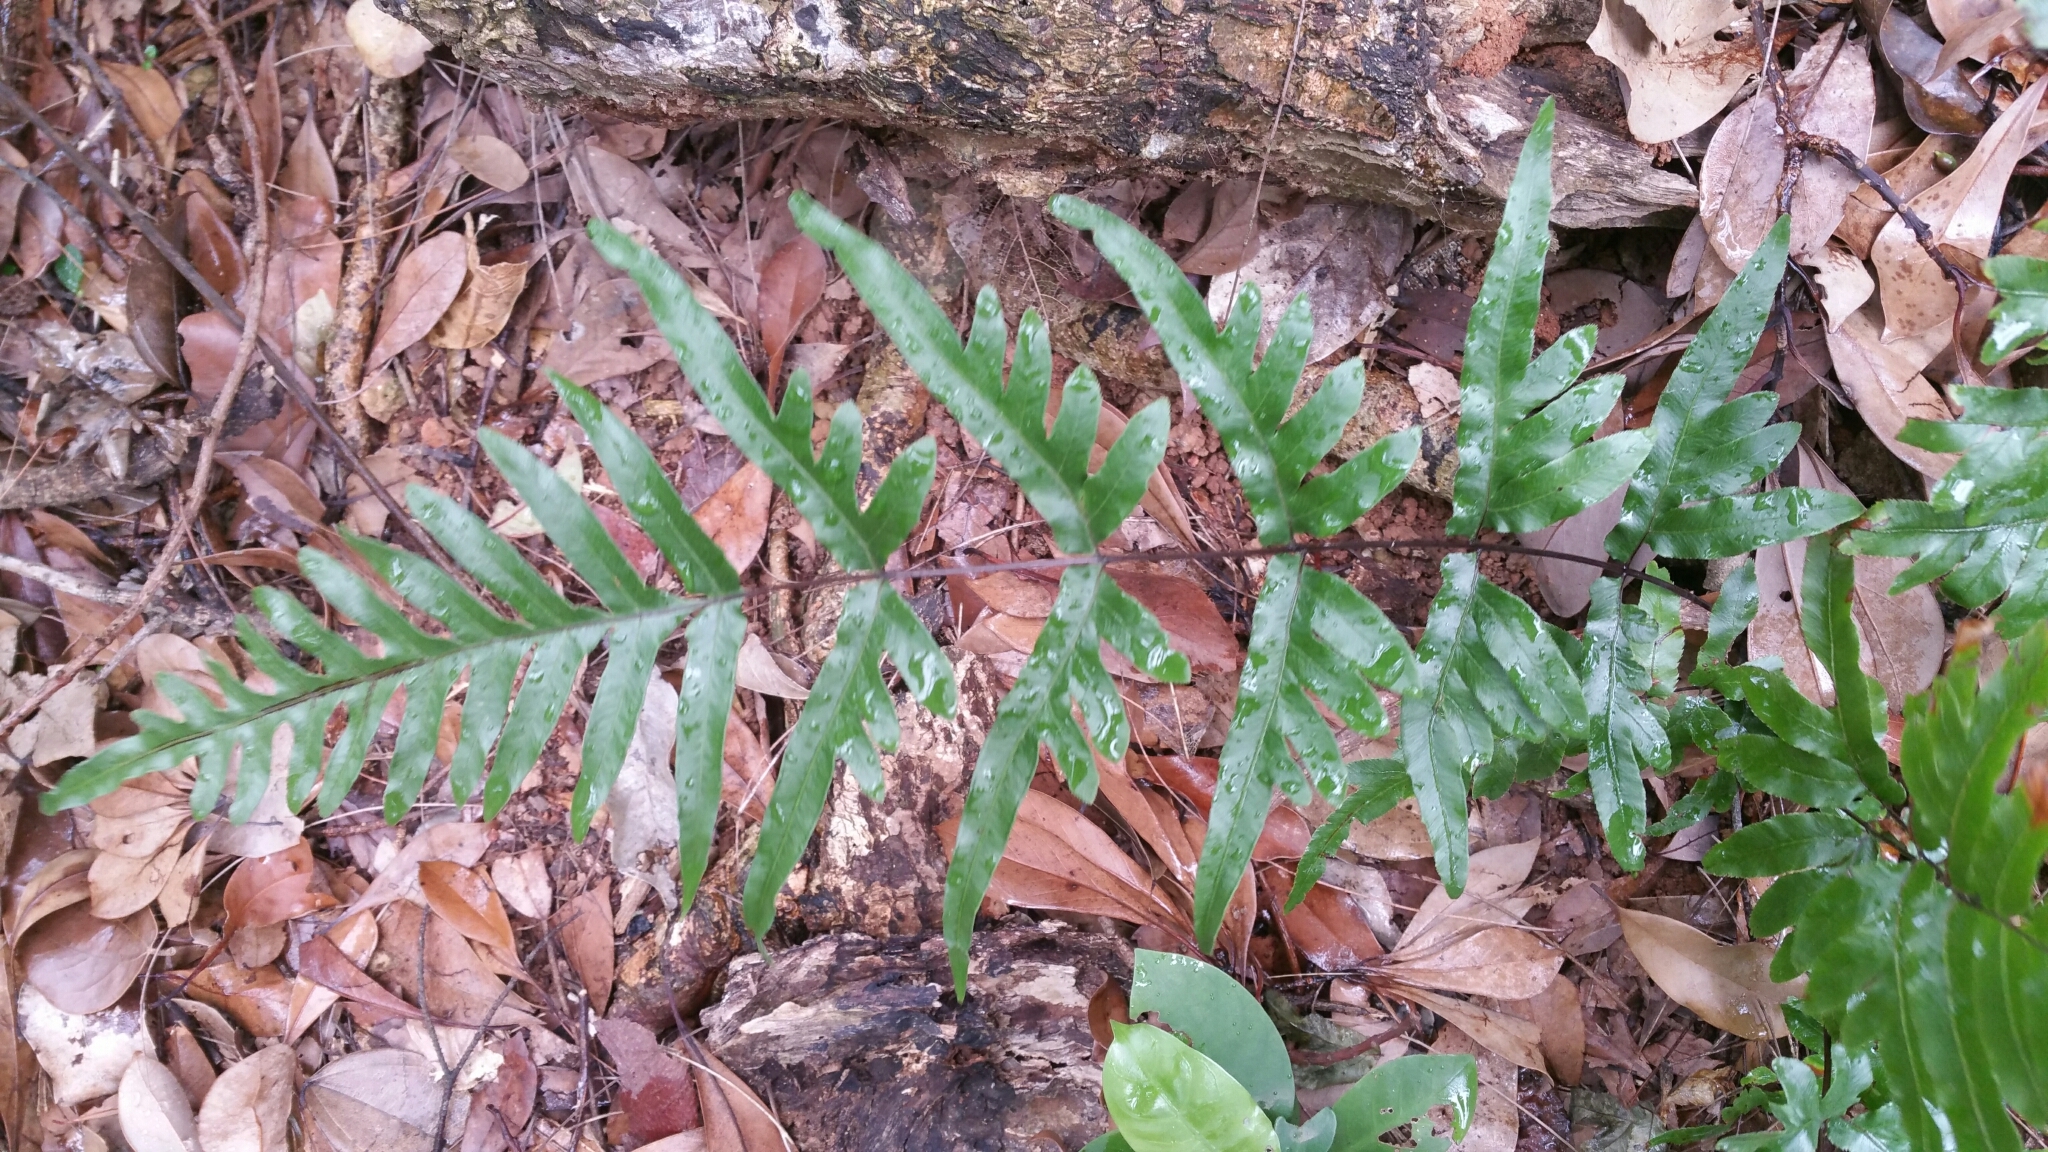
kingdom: Plantae
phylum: Tracheophyta
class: Polypodiopsida
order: Polypodiales
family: Pteridaceae
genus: Pteris
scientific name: Pteris semipinnata
